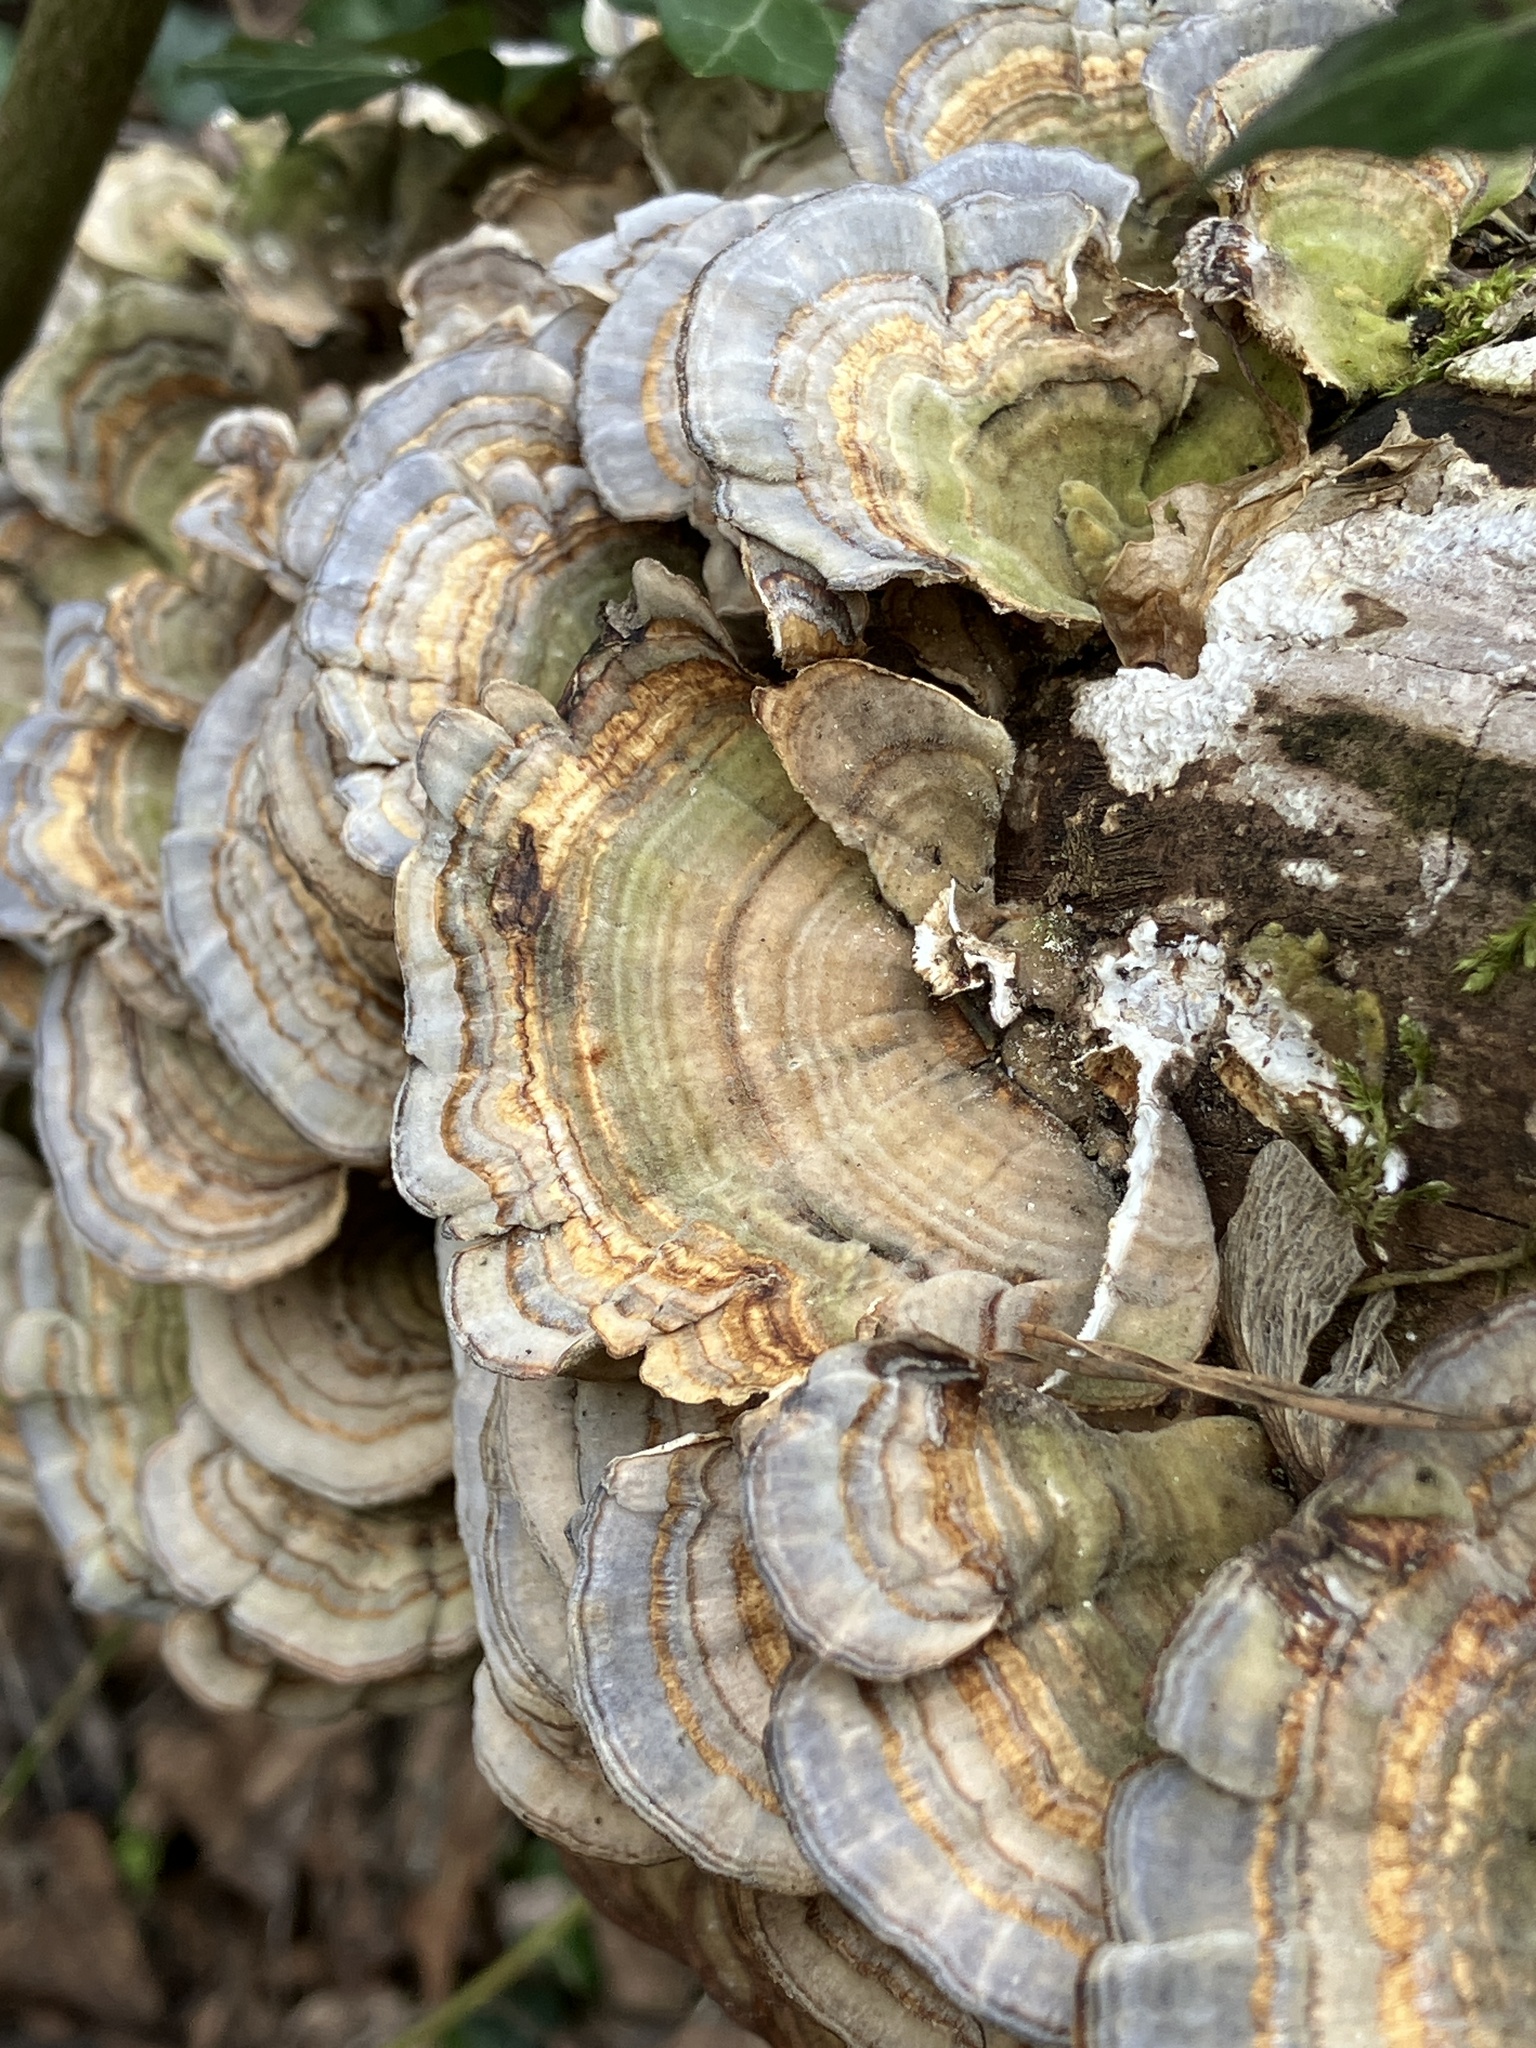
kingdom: Fungi
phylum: Basidiomycota
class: Agaricomycetes
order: Polyporales
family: Polyporaceae
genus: Trametes
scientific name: Trametes versicolor
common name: Turkeytail
